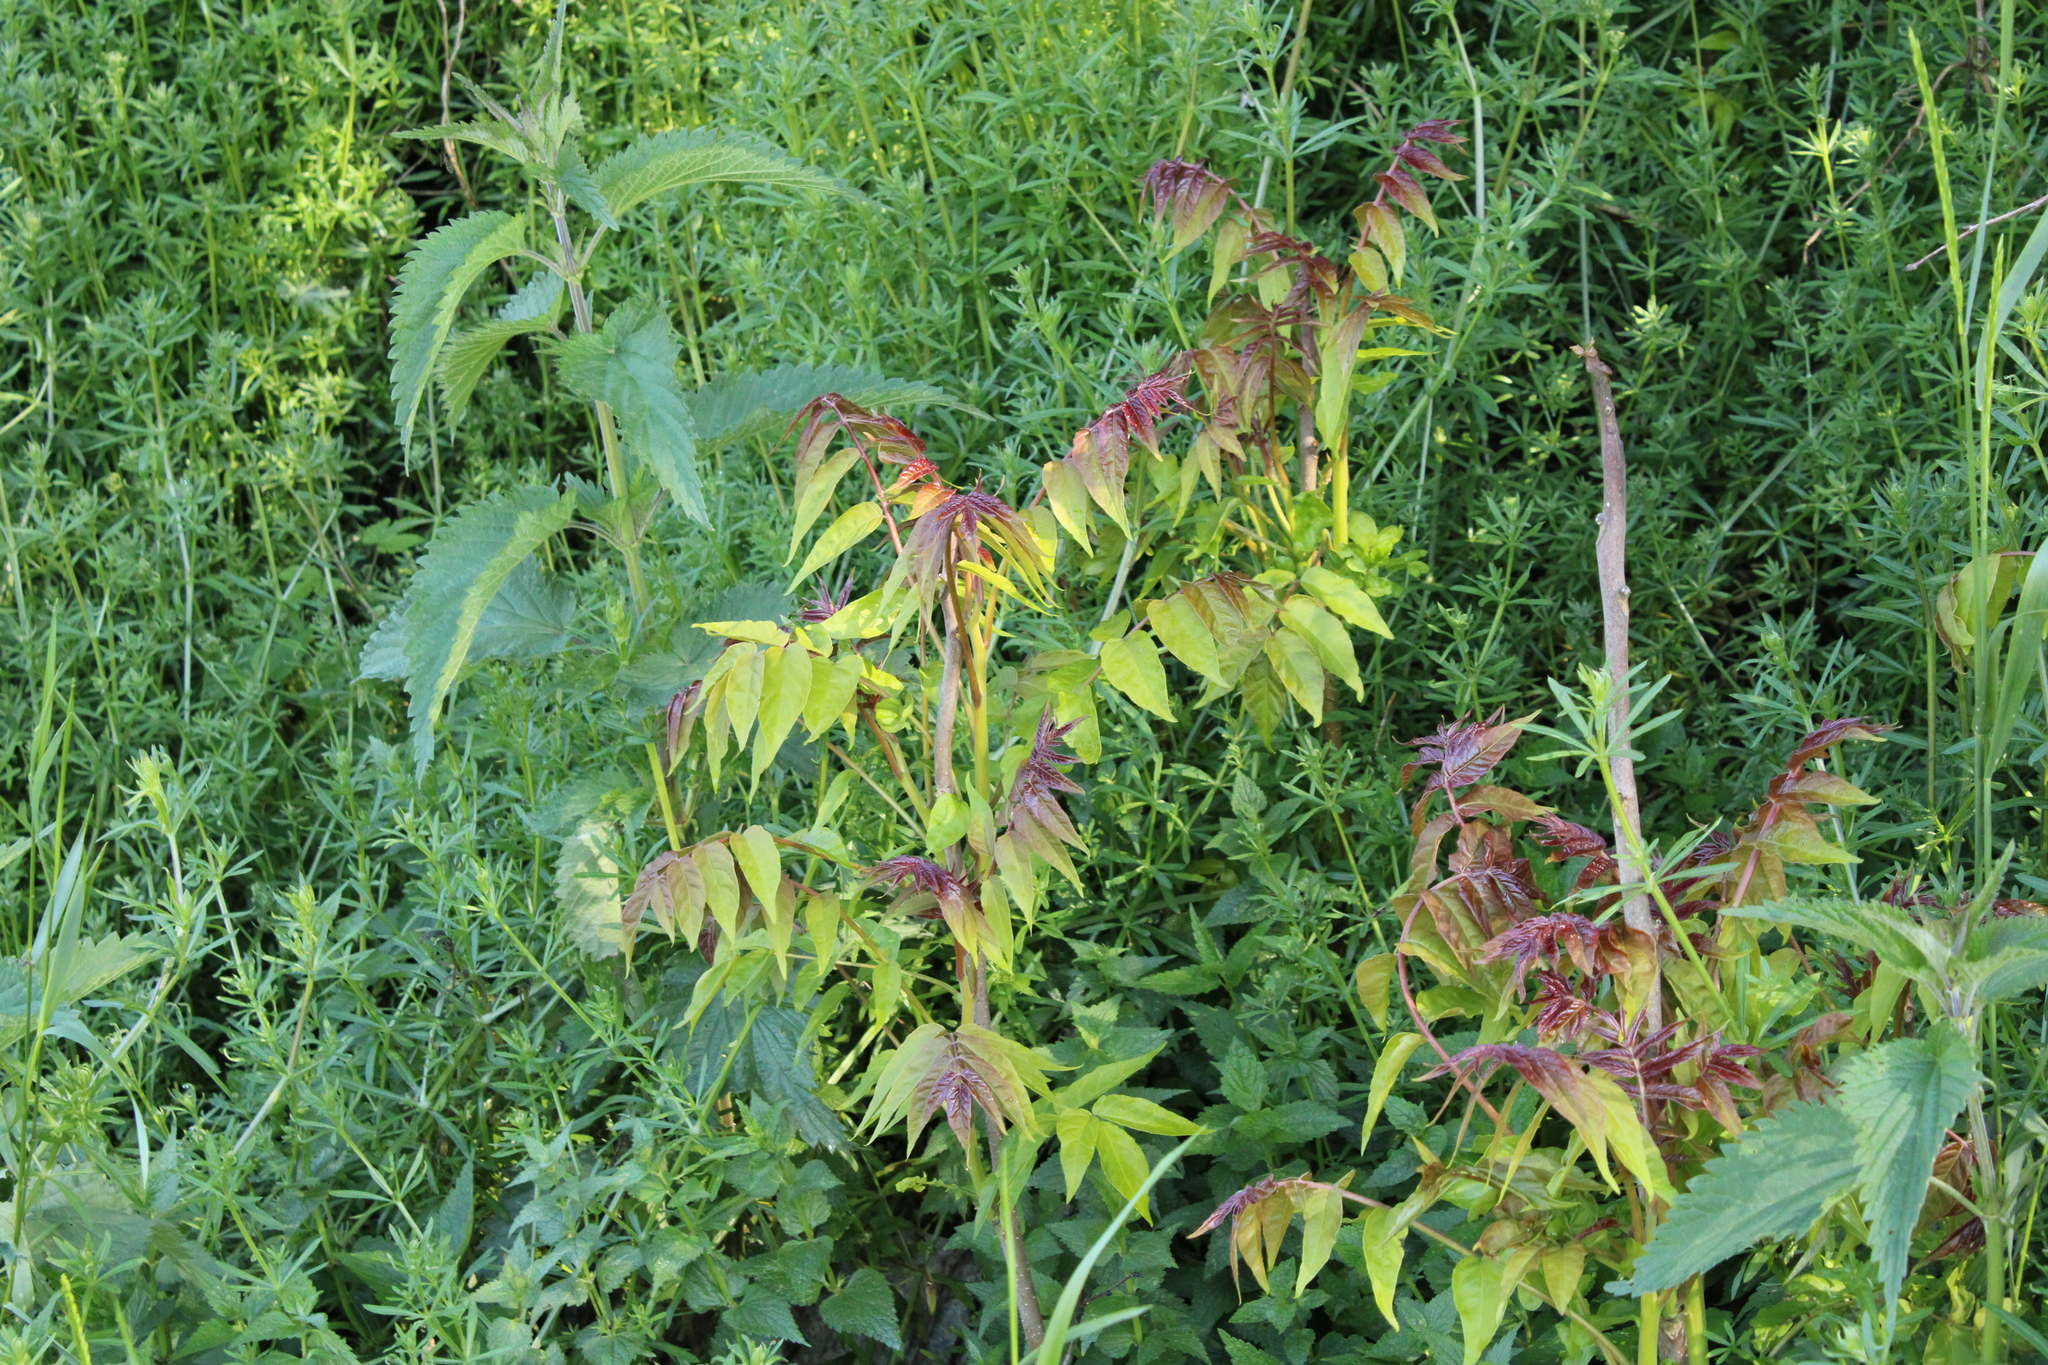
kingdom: Plantae
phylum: Tracheophyta
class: Magnoliopsida
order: Sapindales
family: Simaroubaceae
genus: Ailanthus
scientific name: Ailanthus altissima
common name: Tree-of-heaven
